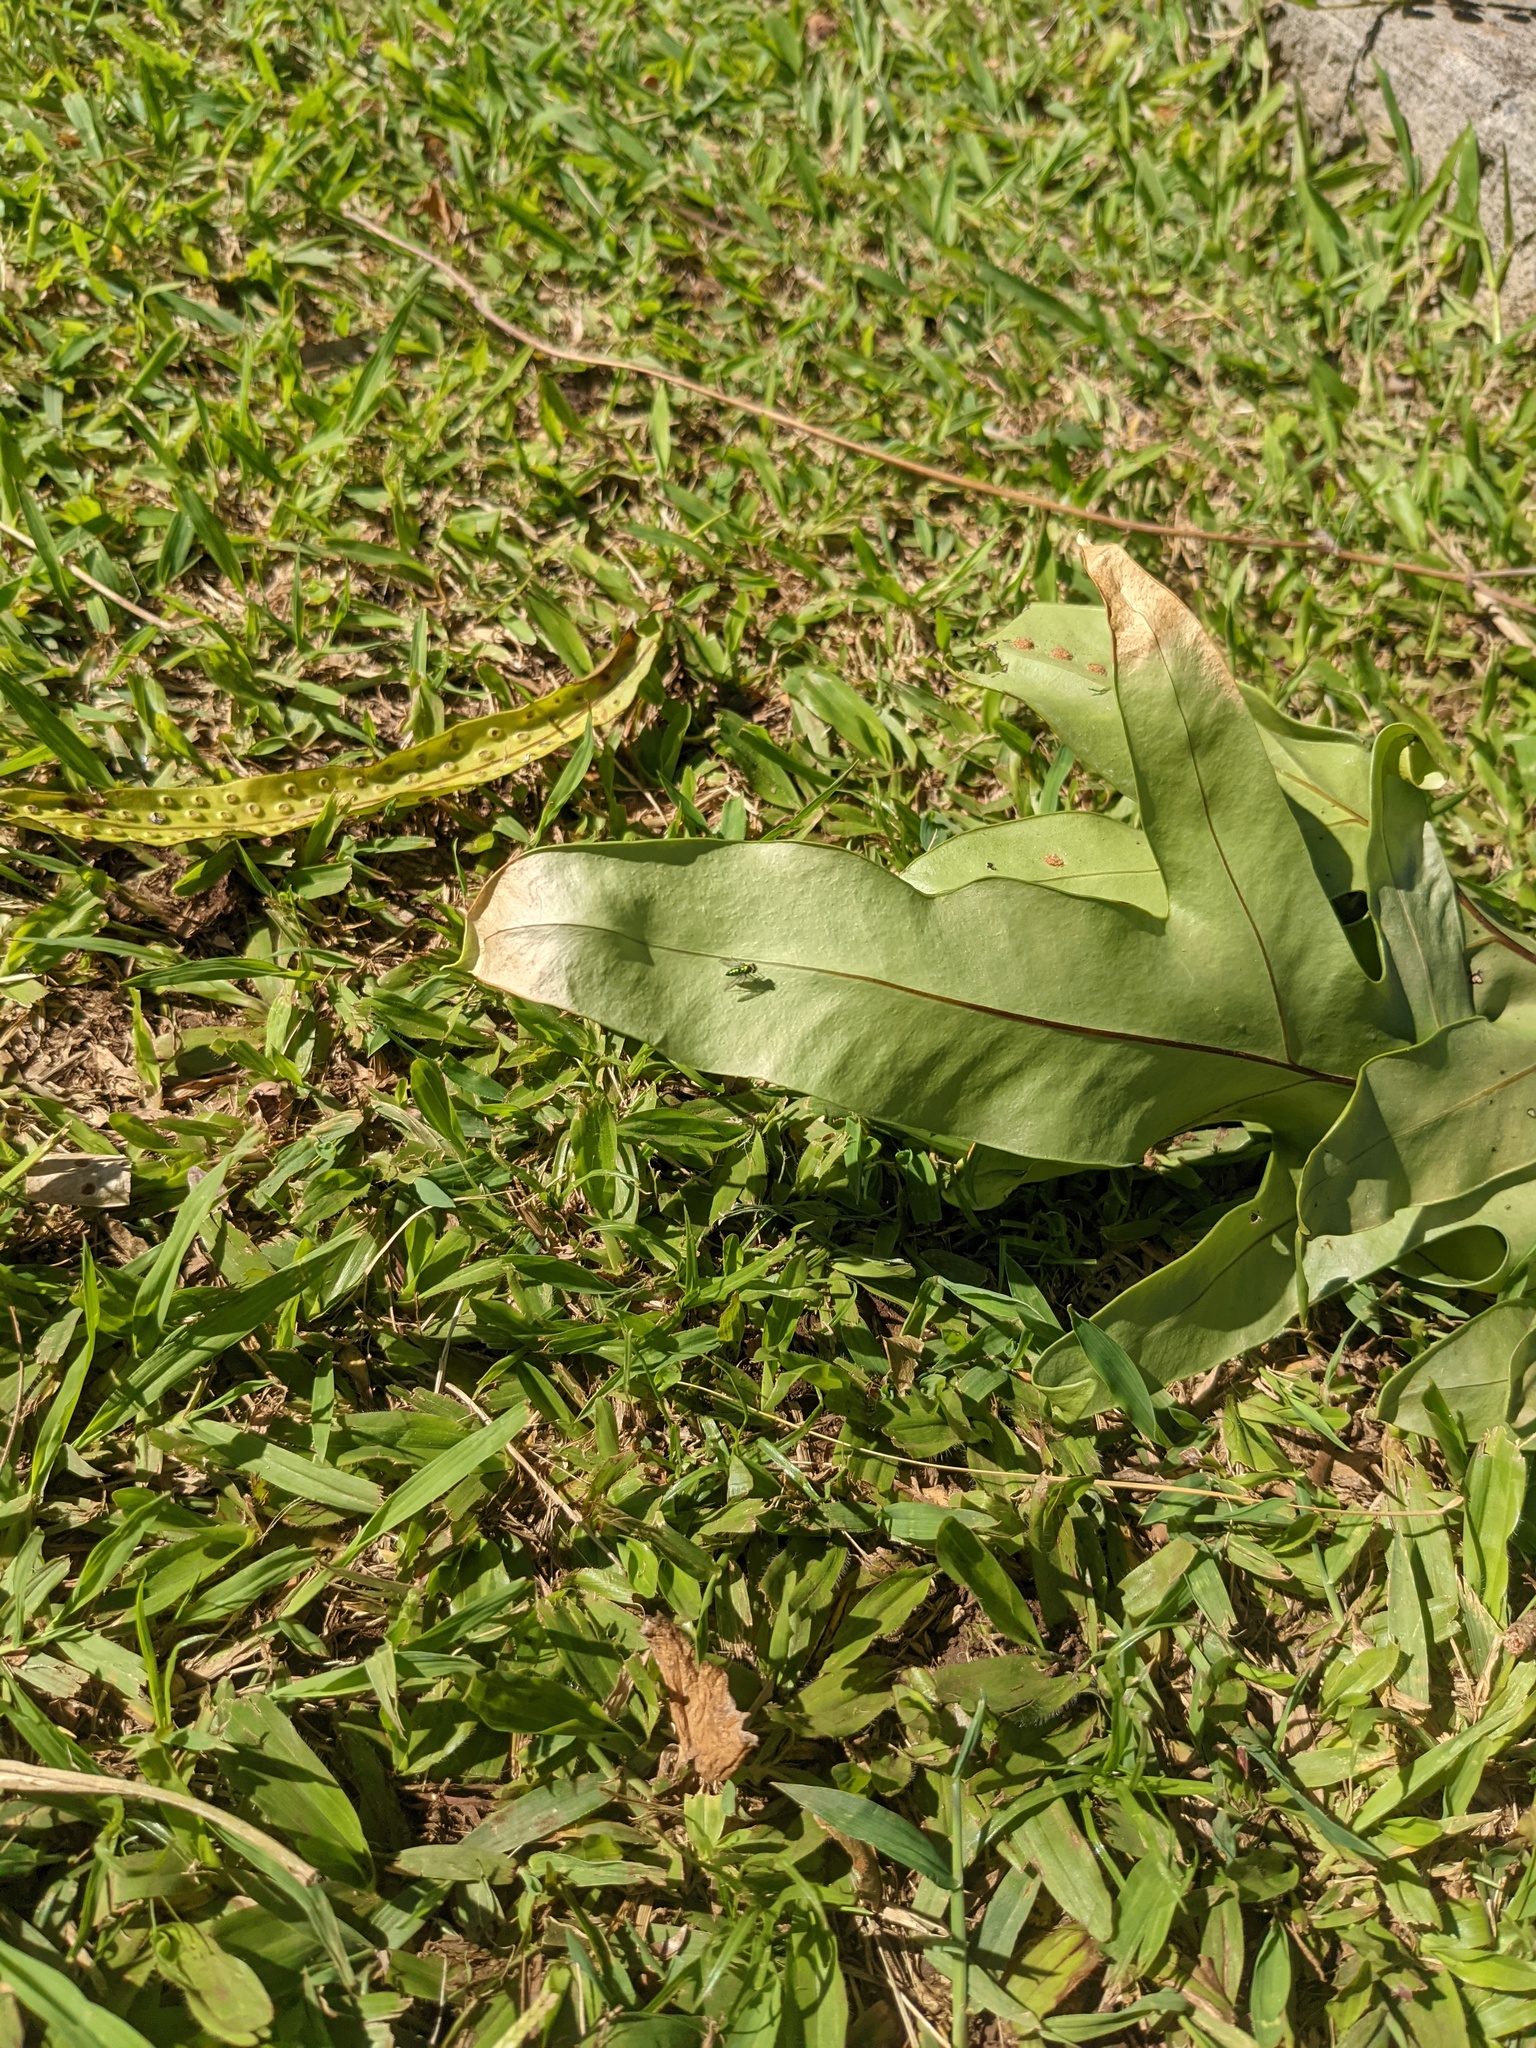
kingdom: Animalia
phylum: Arthropoda
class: Insecta
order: Diptera
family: Dolichopodidae
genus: Condylostylus
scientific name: Condylostylus longicornis
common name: Long-legged fly
